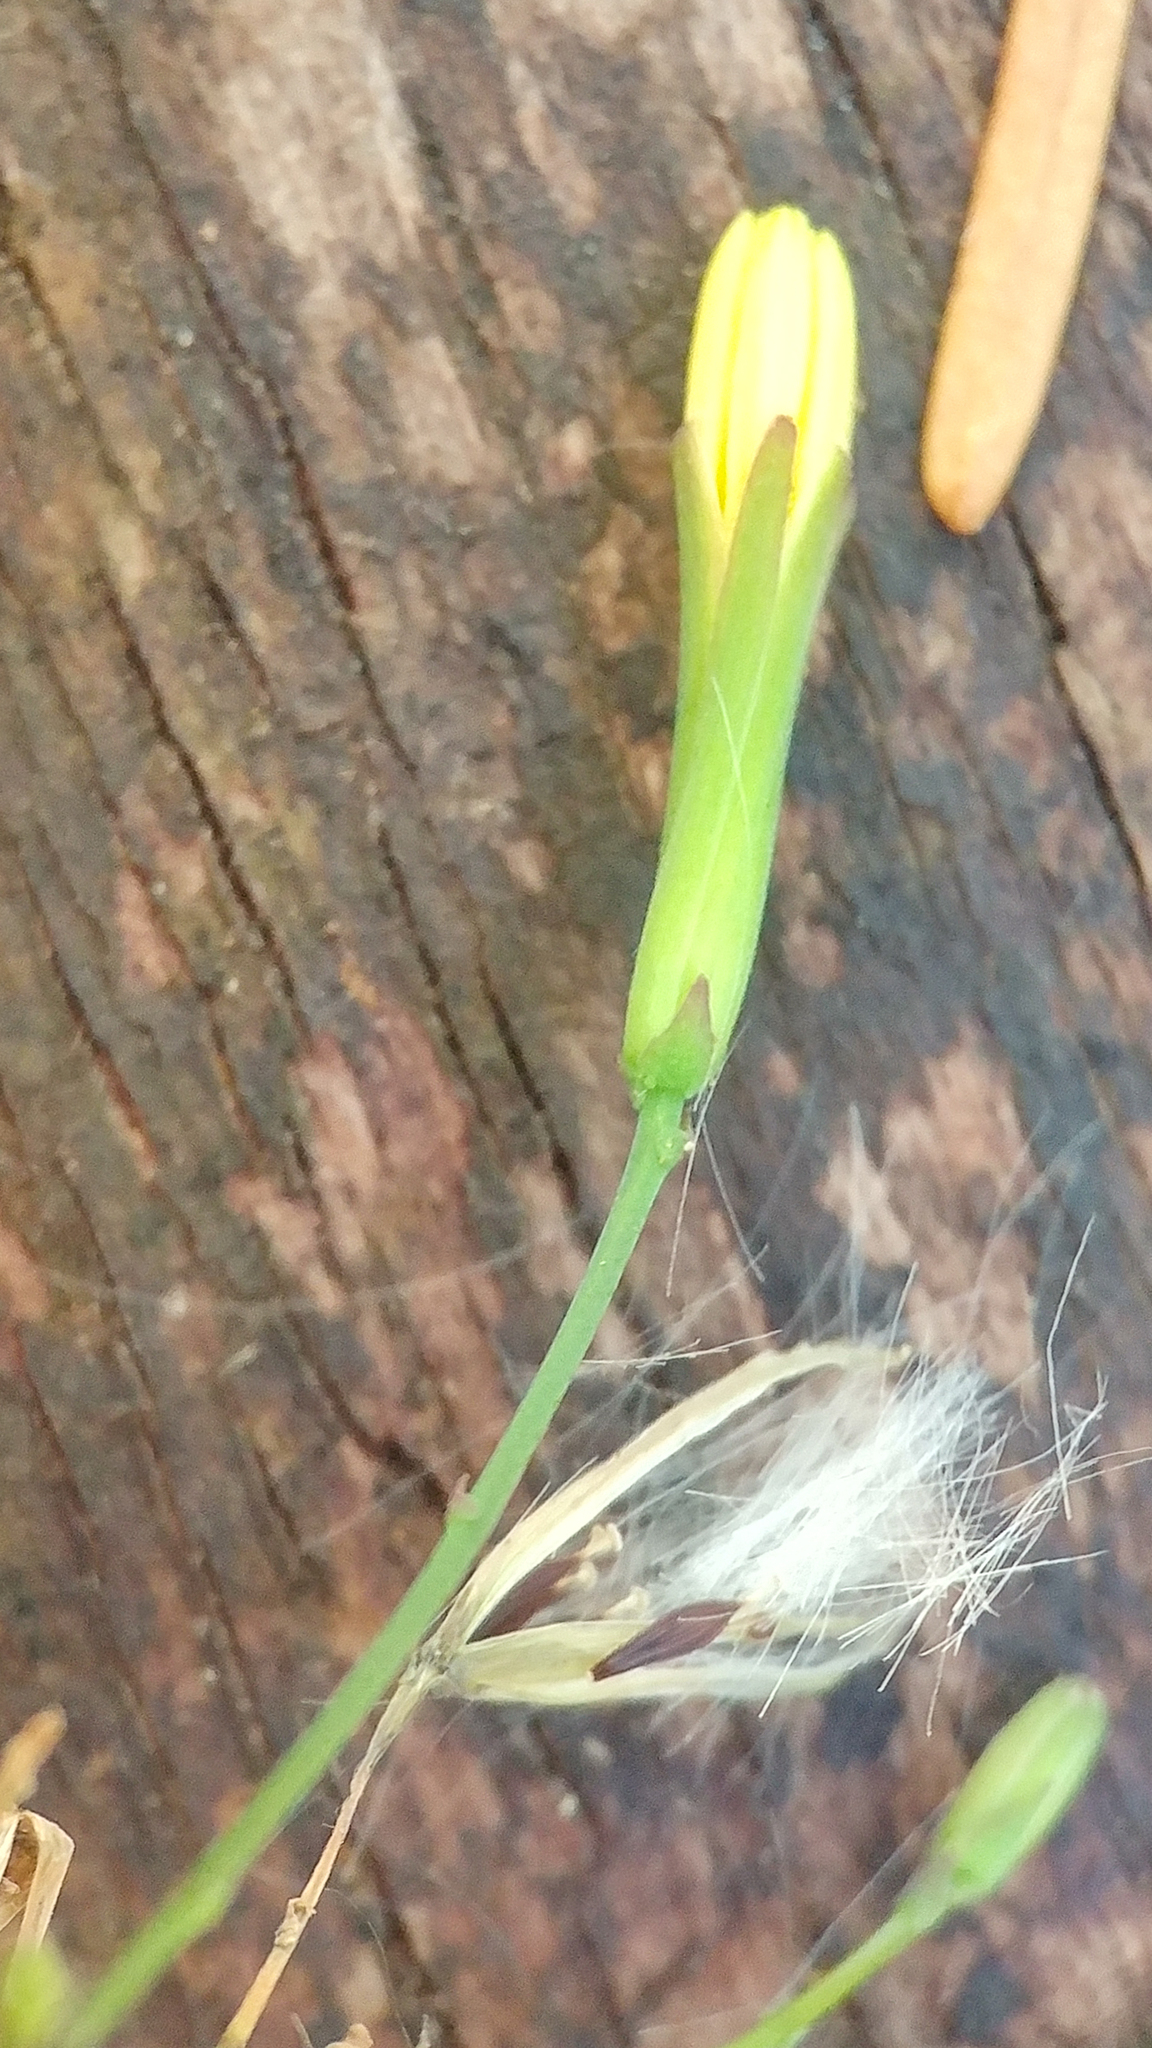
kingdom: Plantae
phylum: Tracheophyta
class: Magnoliopsida
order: Asterales
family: Asteraceae
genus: Mycelis
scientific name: Mycelis muralis
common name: Wall lettuce
